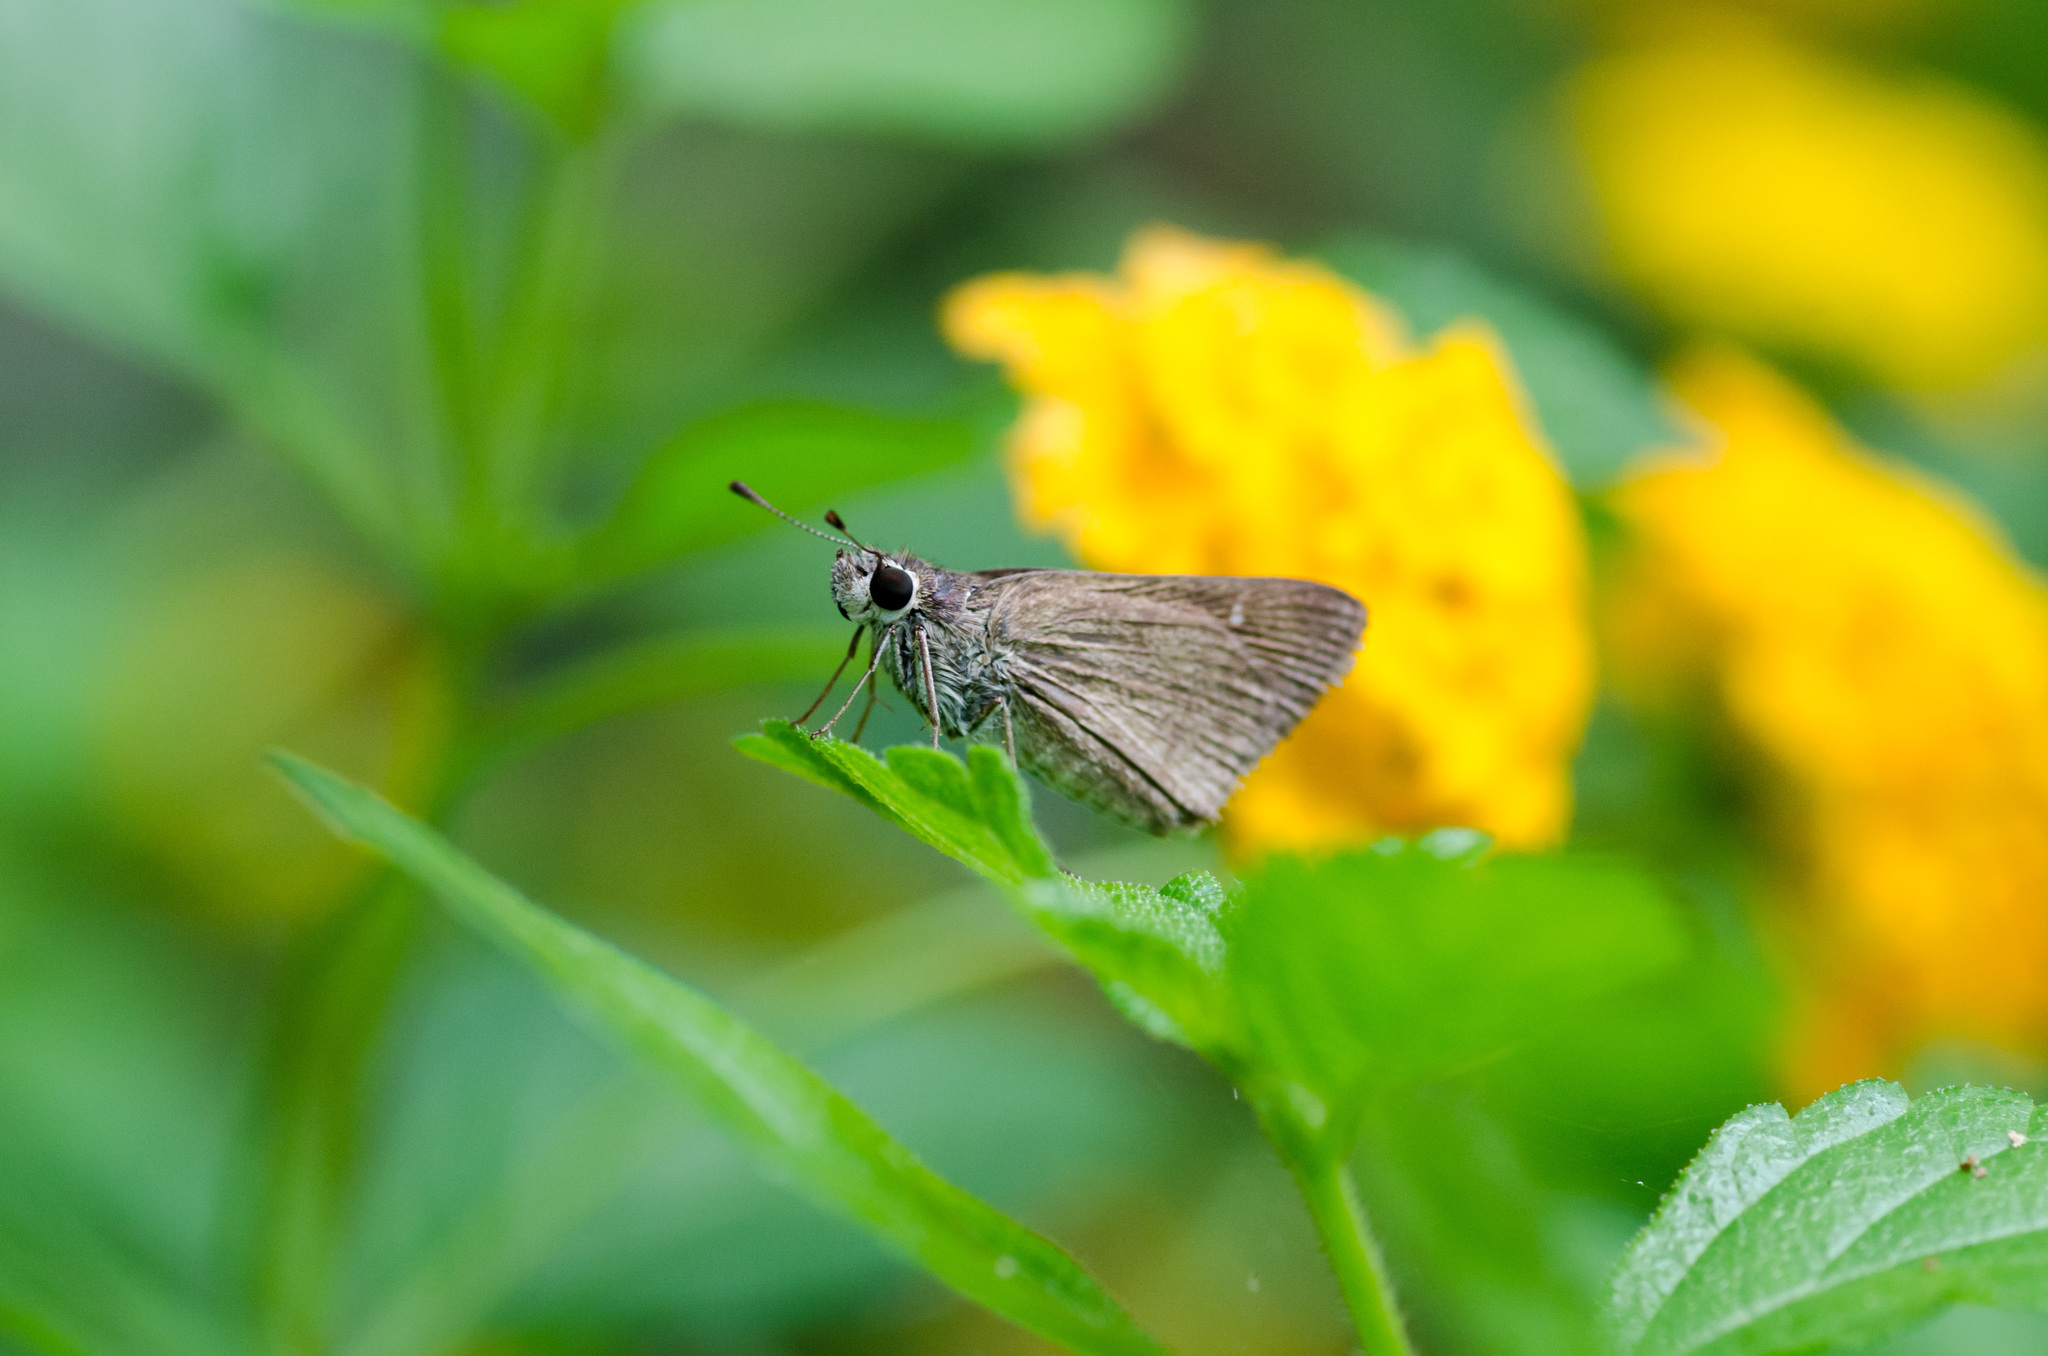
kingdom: Animalia
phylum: Arthropoda
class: Insecta
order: Lepidoptera
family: Hesperiidae
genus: Lerodea
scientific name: Lerodea eufala
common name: Eufala skipper
